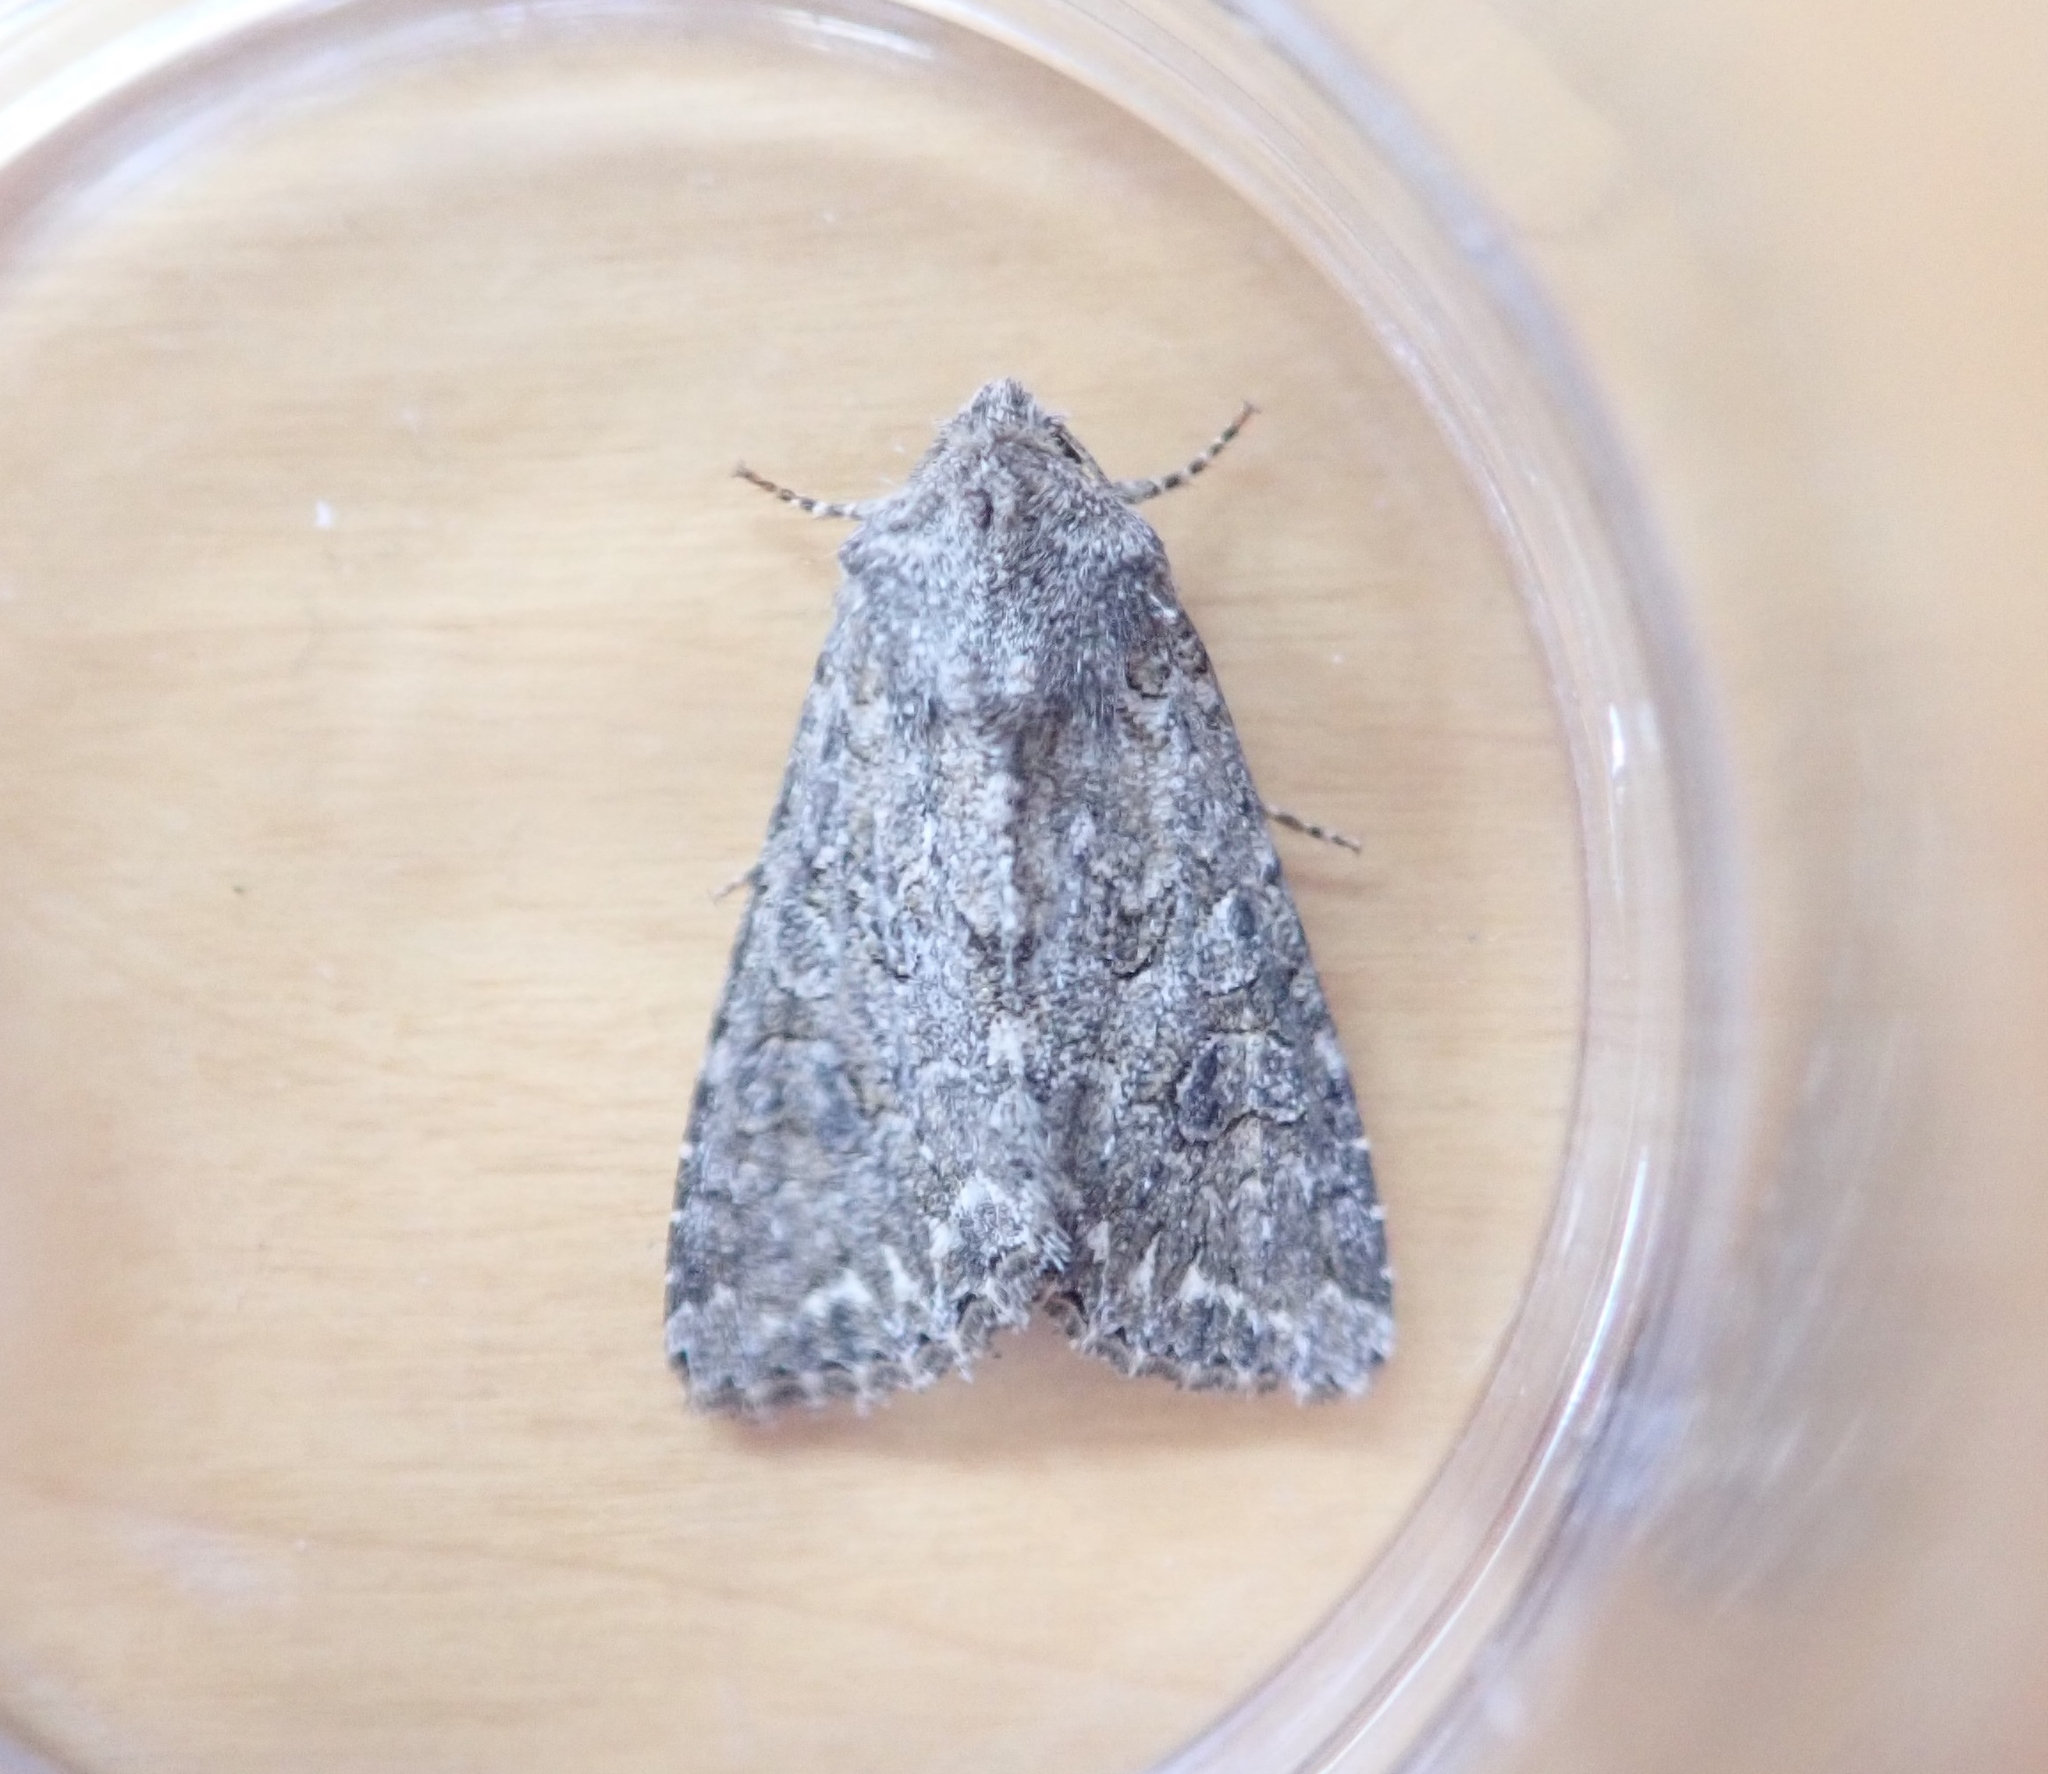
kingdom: Animalia
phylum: Arthropoda
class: Insecta
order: Lepidoptera
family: Noctuidae
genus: Anarta
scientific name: Anarta trifolii
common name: Clover cutworm moth
